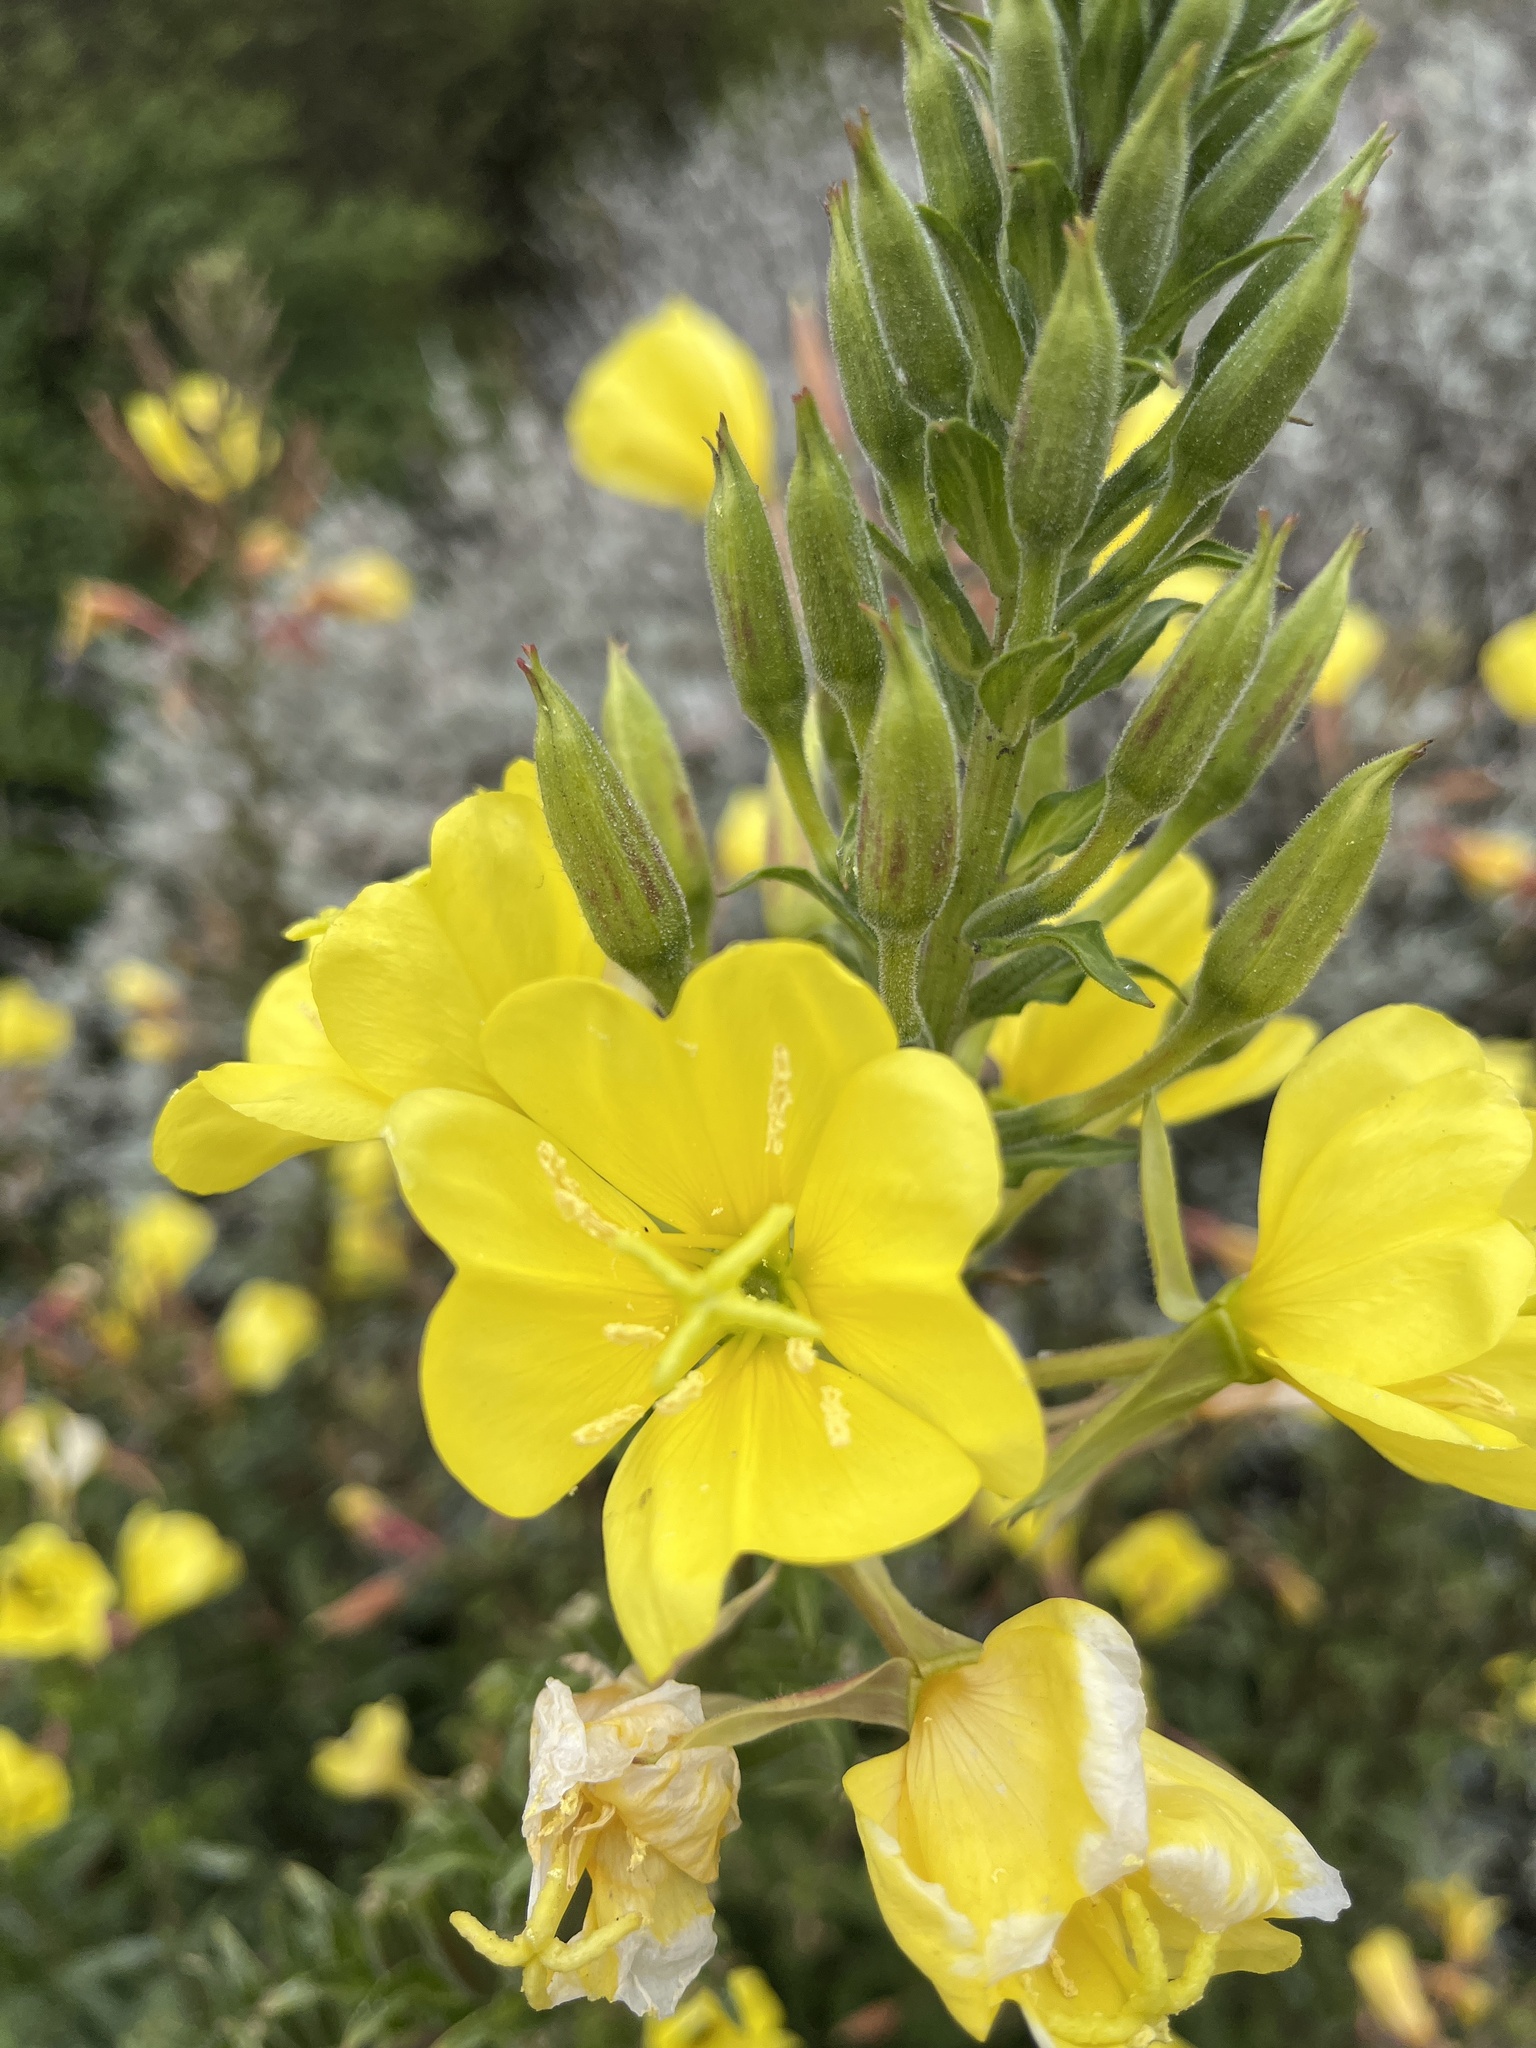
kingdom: Plantae
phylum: Tracheophyta
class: Magnoliopsida
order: Myrtales
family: Onagraceae
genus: Oenothera
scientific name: Oenothera elata
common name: Hooker's evening-primrose
